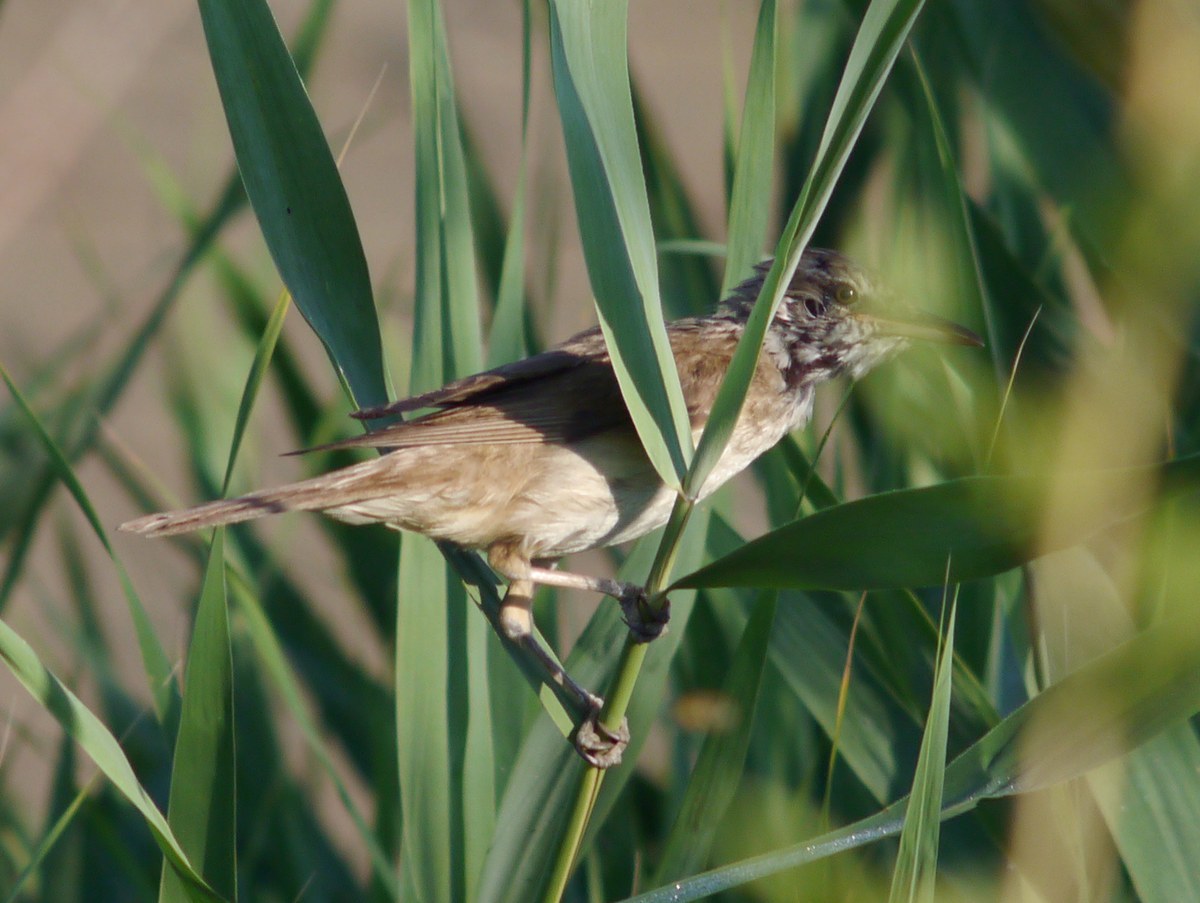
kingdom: Animalia
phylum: Chordata
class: Aves
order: Passeriformes
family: Acrocephalidae
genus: Acrocephalus
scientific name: Acrocephalus arundinaceus
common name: Great reed warbler
